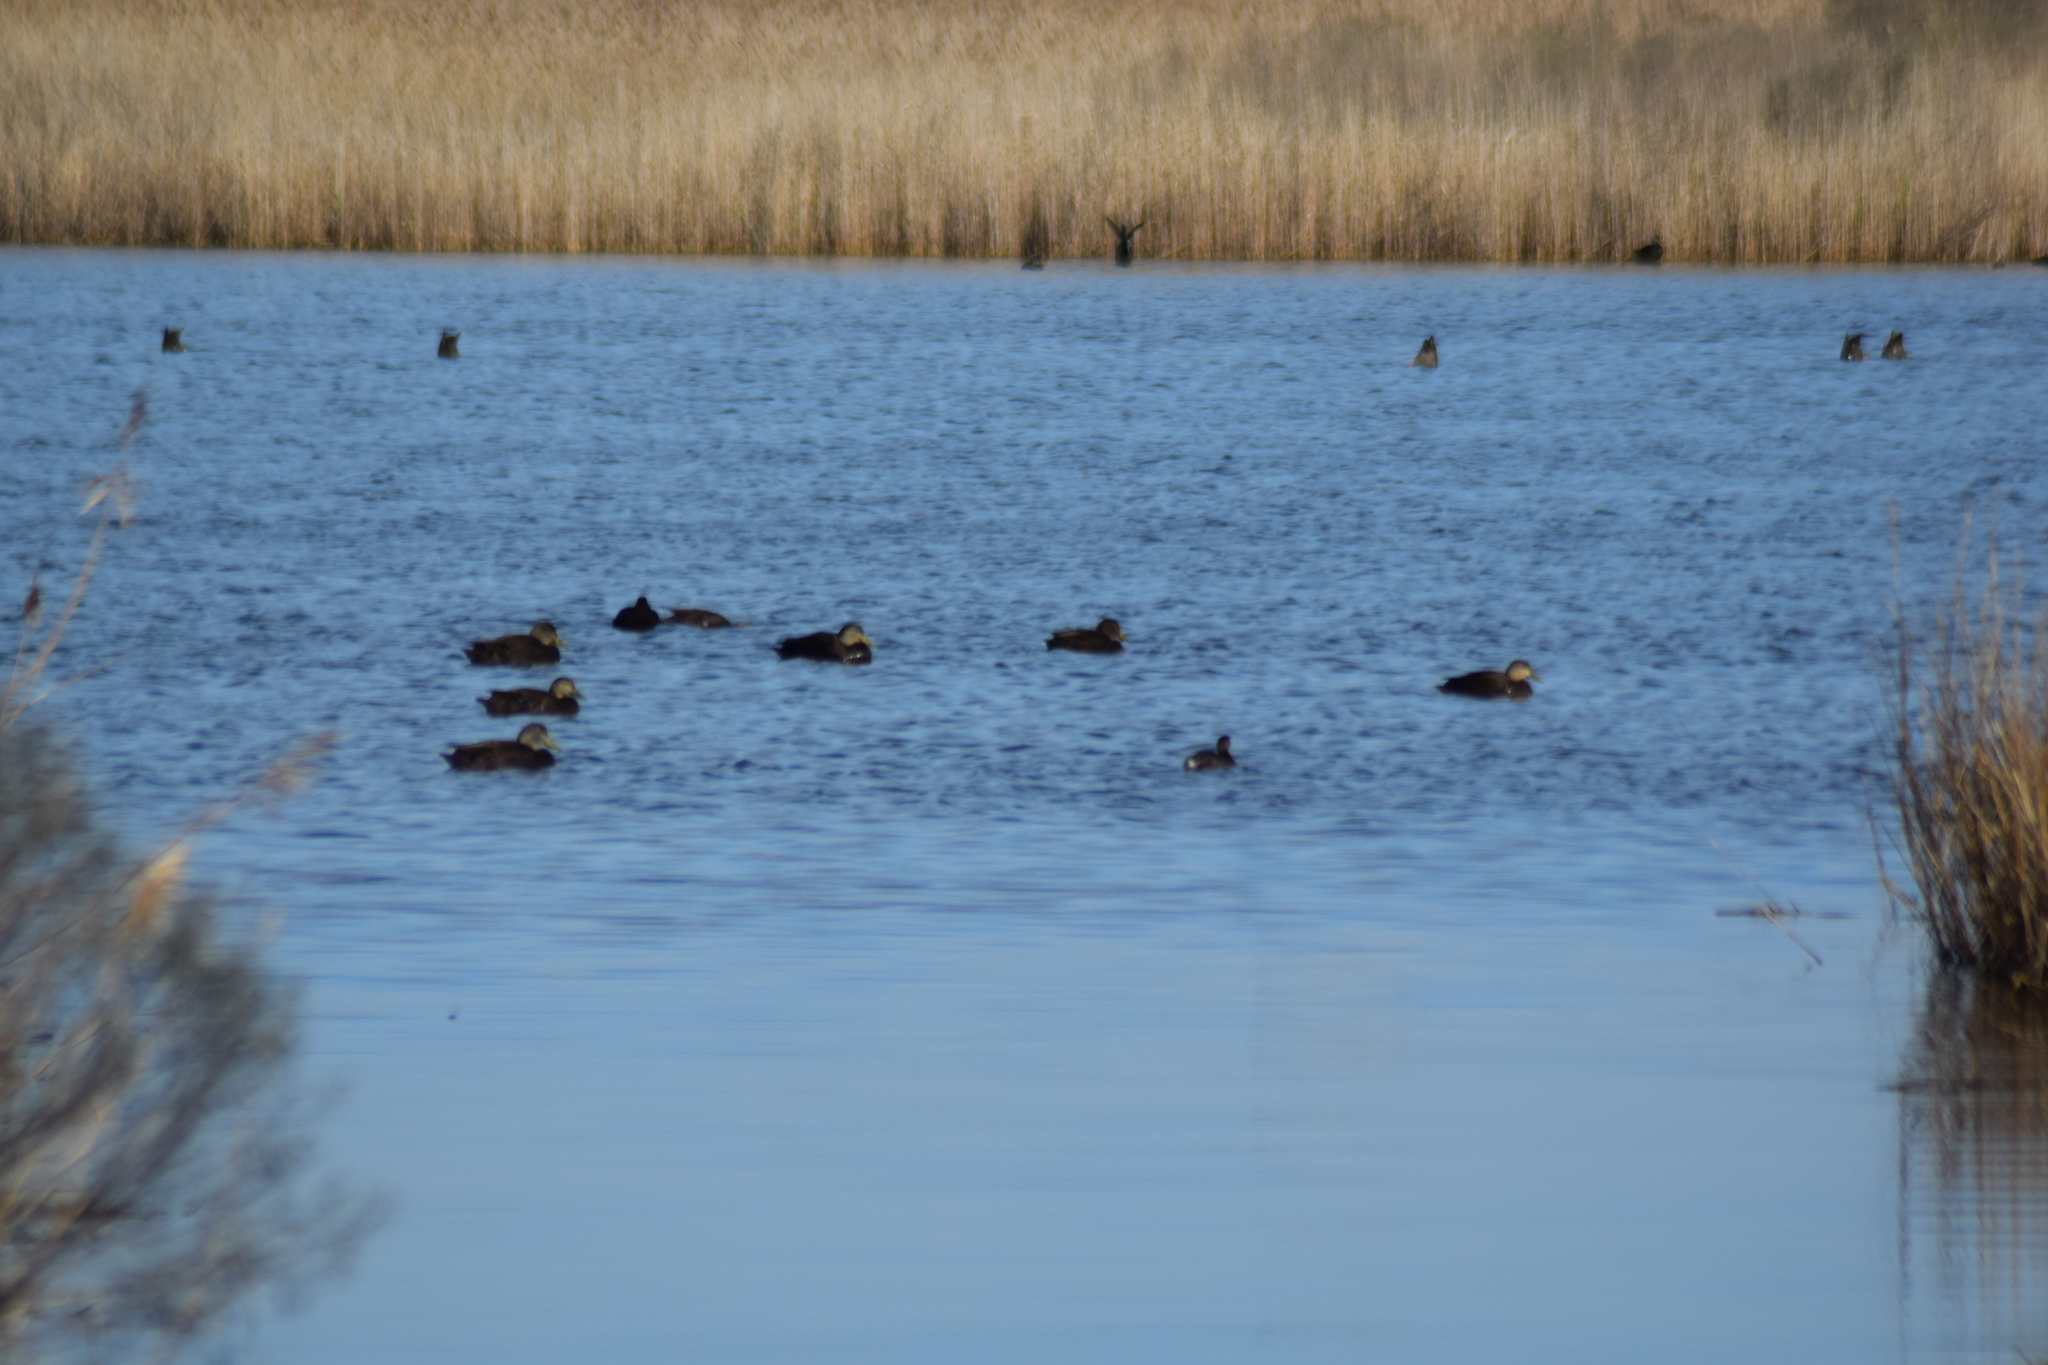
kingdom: Animalia
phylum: Chordata
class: Aves
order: Anseriformes
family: Anatidae
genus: Anas
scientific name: Anas rubripes
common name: American black duck
